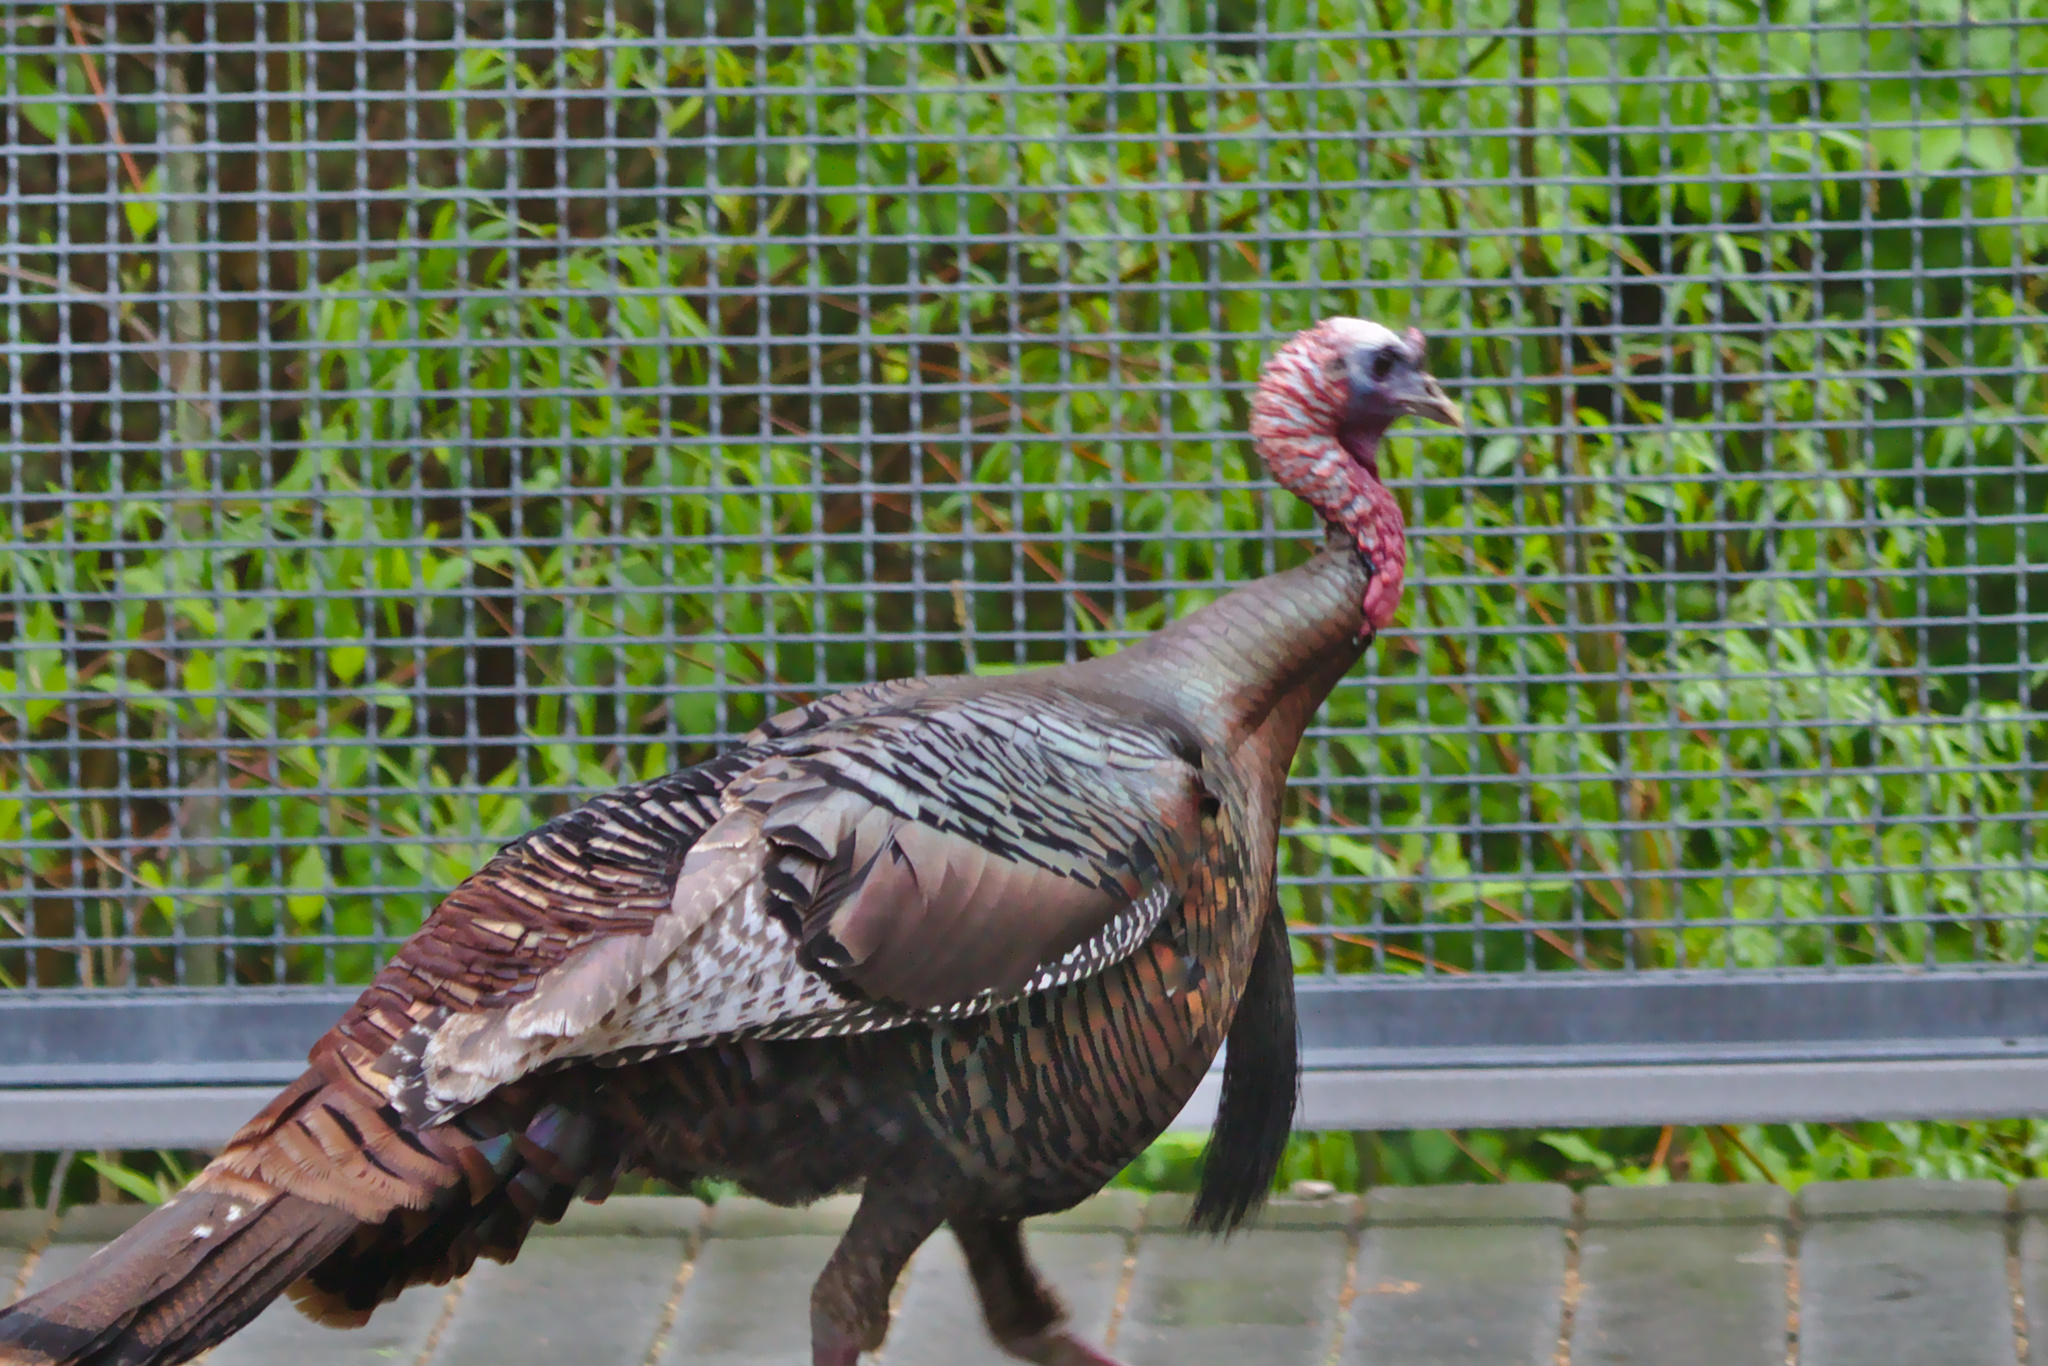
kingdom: Animalia
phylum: Chordata
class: Aves
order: Galliformes
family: Phasianidae
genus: Meleagris
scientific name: Meleagris gallopavo
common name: Wild turkey
